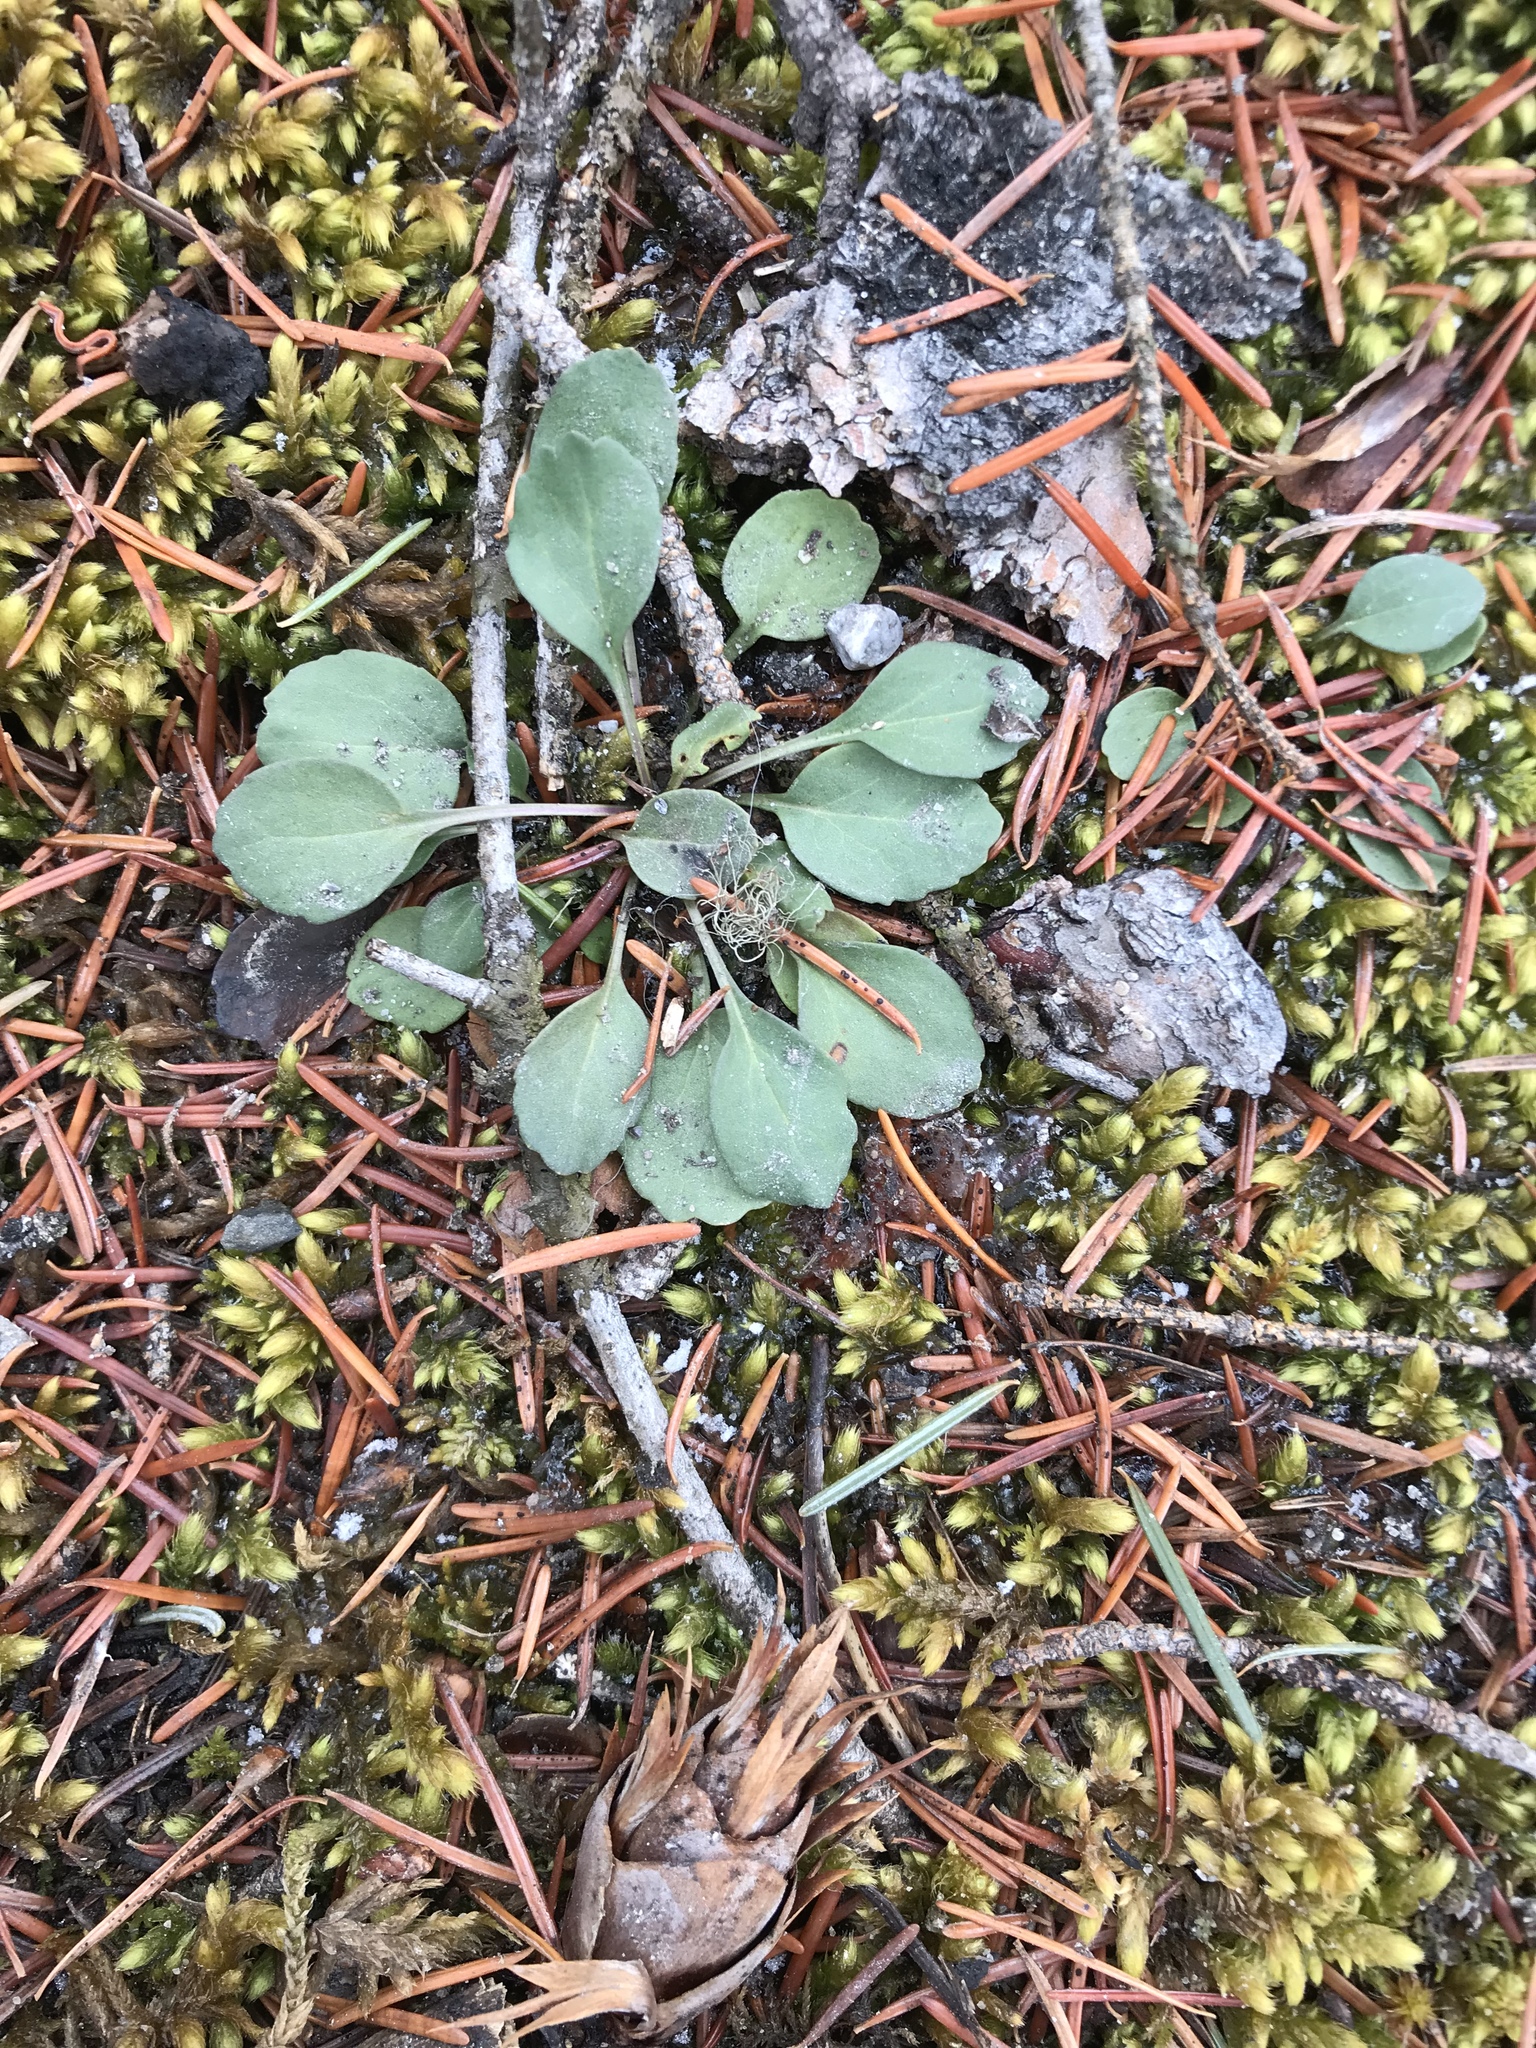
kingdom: Plantae
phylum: Tracheophyta
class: Magnoliopsida
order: Asterales
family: Asteraceae
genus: Packera
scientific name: Packera streptanthifolia
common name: Rocky mountain butterweed
